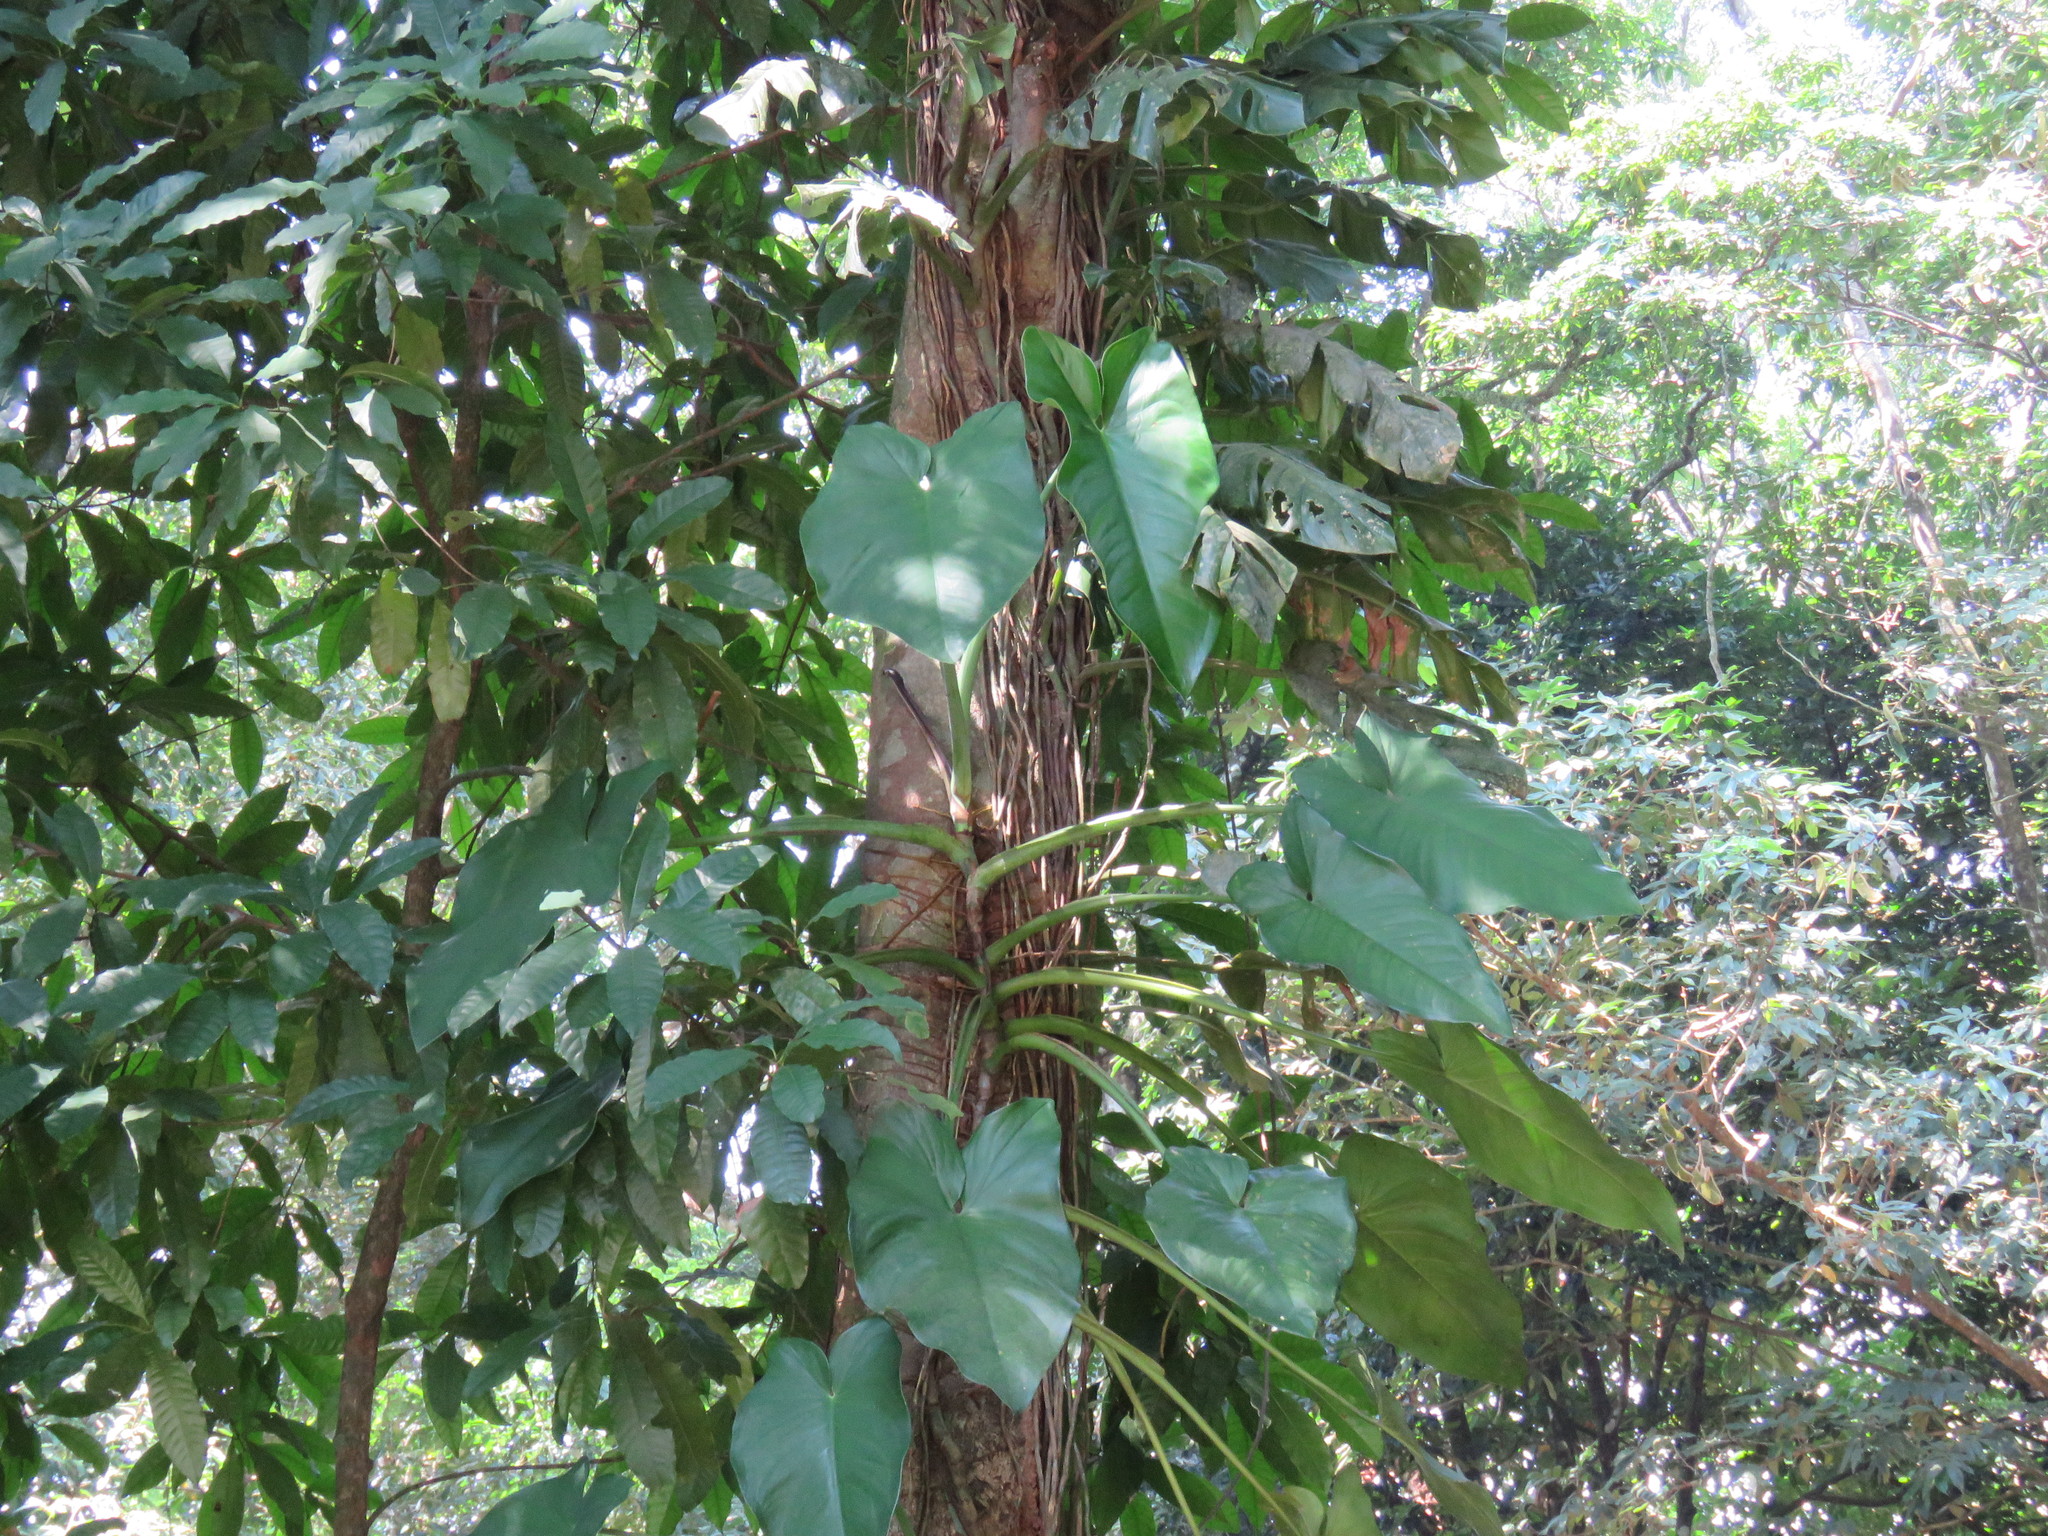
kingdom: Plantae
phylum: Tracheophyta
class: Liliopsida
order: Alismatales
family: Araceae
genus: Syngonium
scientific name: Syngonium chiapense
